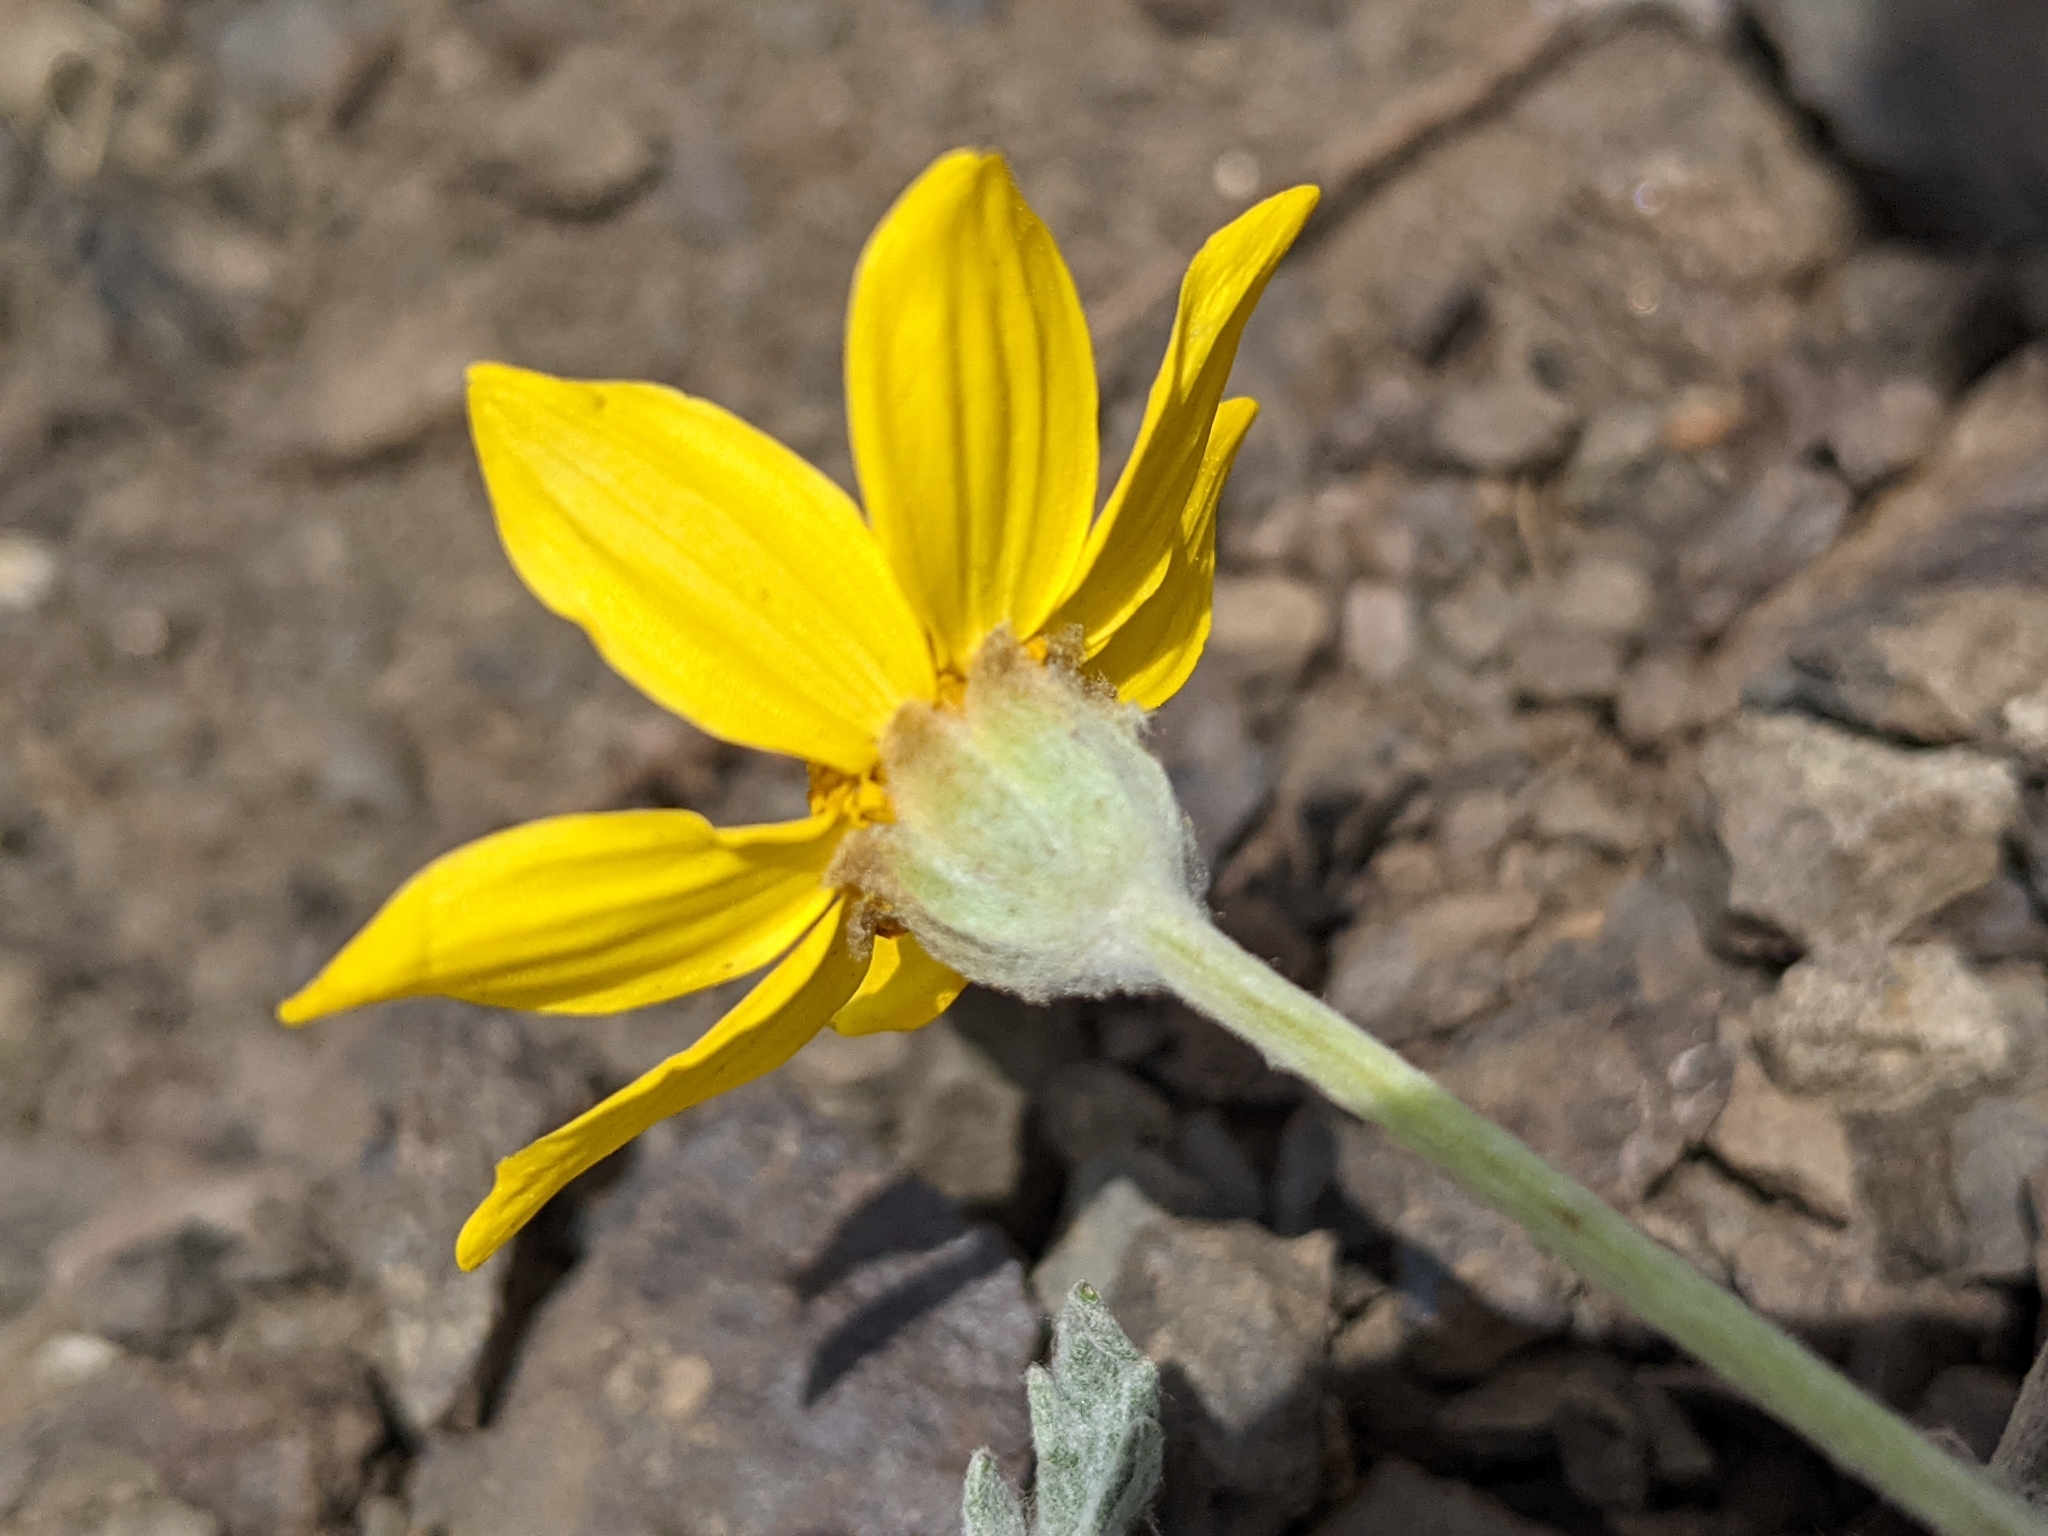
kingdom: Plantae
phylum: Tracheophyta
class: Magnoliopsida
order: Asterales
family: Asteraceae
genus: Eriophyllum
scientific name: Eriophyllum lanatum
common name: Common woolly-sunflower
